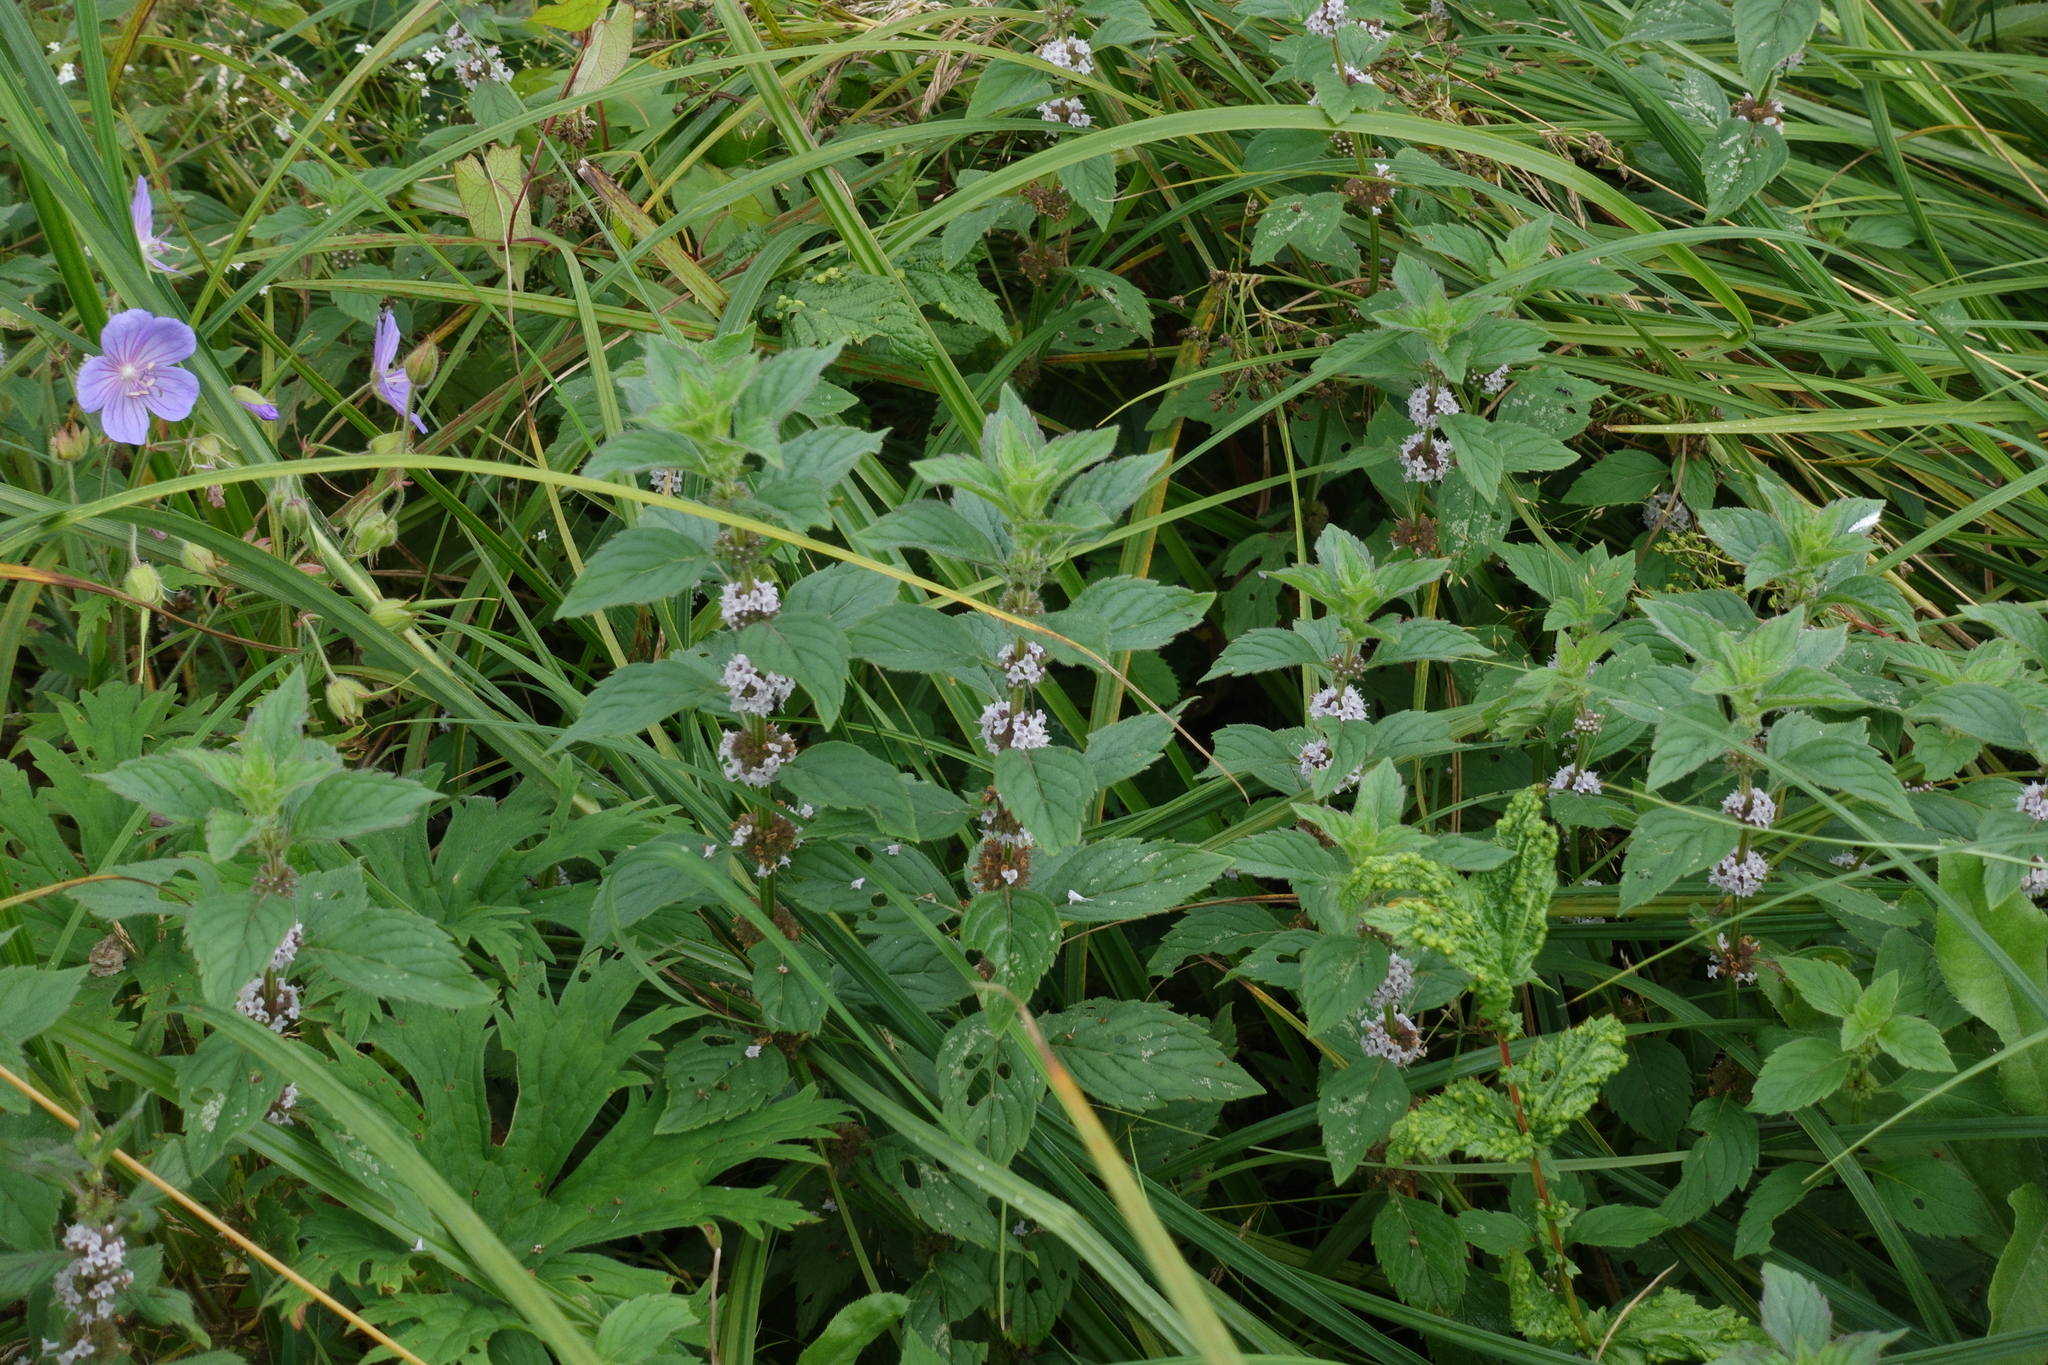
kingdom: Plantae
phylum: Tracheophyta
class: Magnoliopsida
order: Lamiales
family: Lamiaceae
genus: Mentha
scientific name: Mentha arvensis
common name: Corn mint
